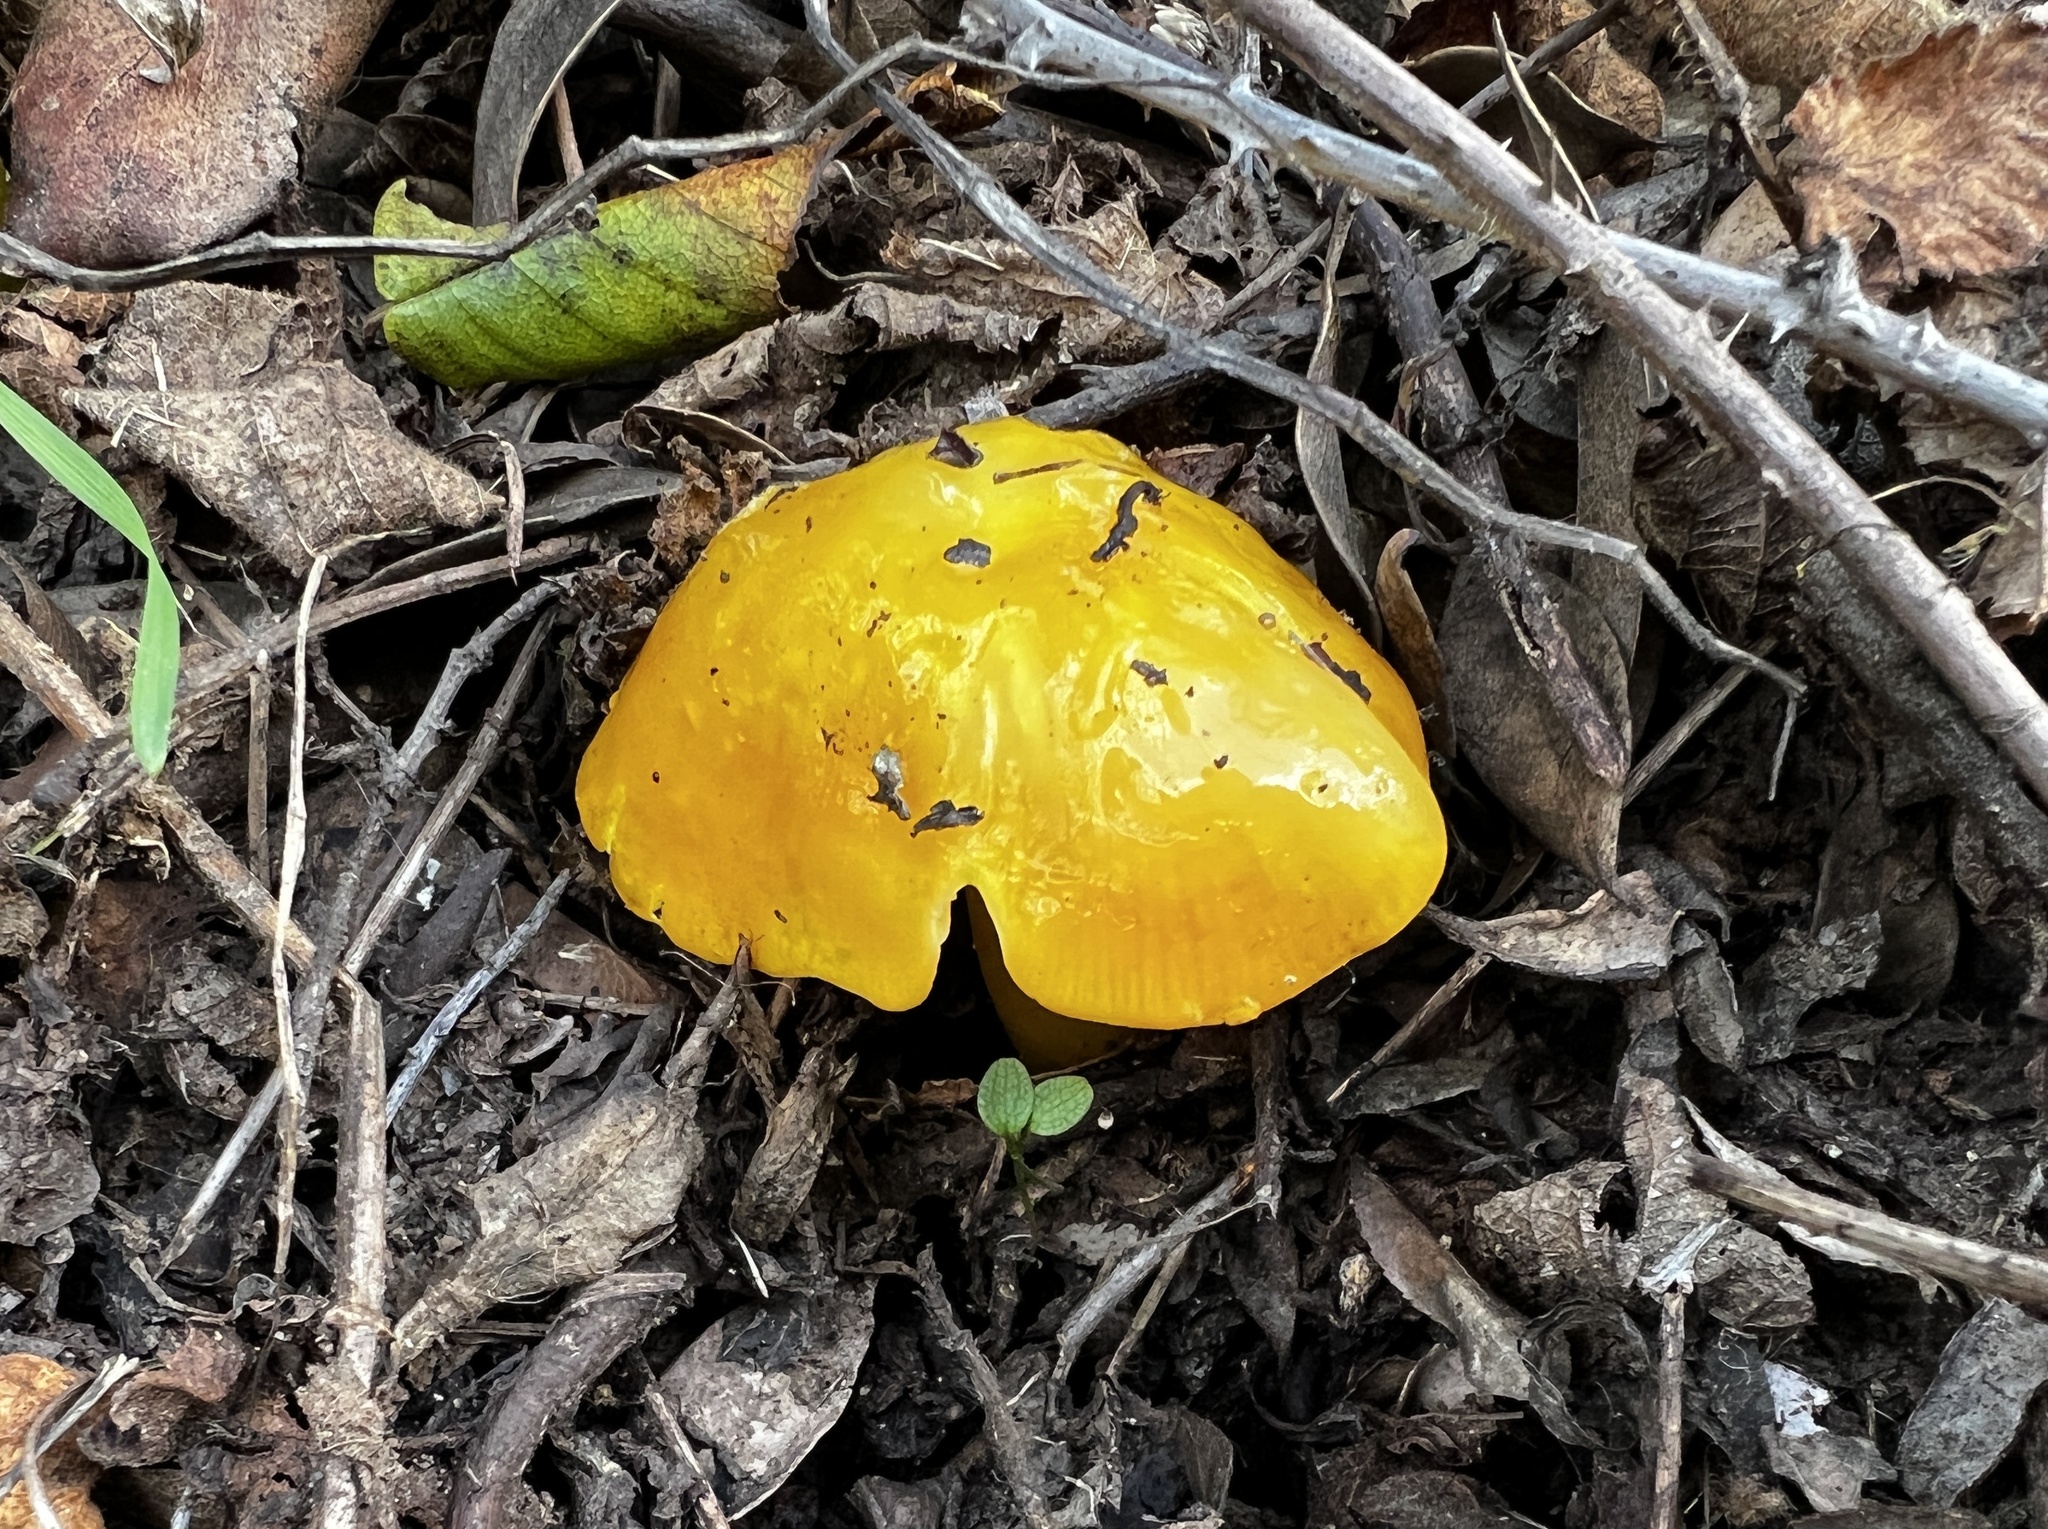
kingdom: Fungi
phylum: Basidiomycota
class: Agaricomycetes
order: Agaricales
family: Hygrophoraceae
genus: Hygrocybe
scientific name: Hygrocybe flavescens
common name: Golden waxy cap
